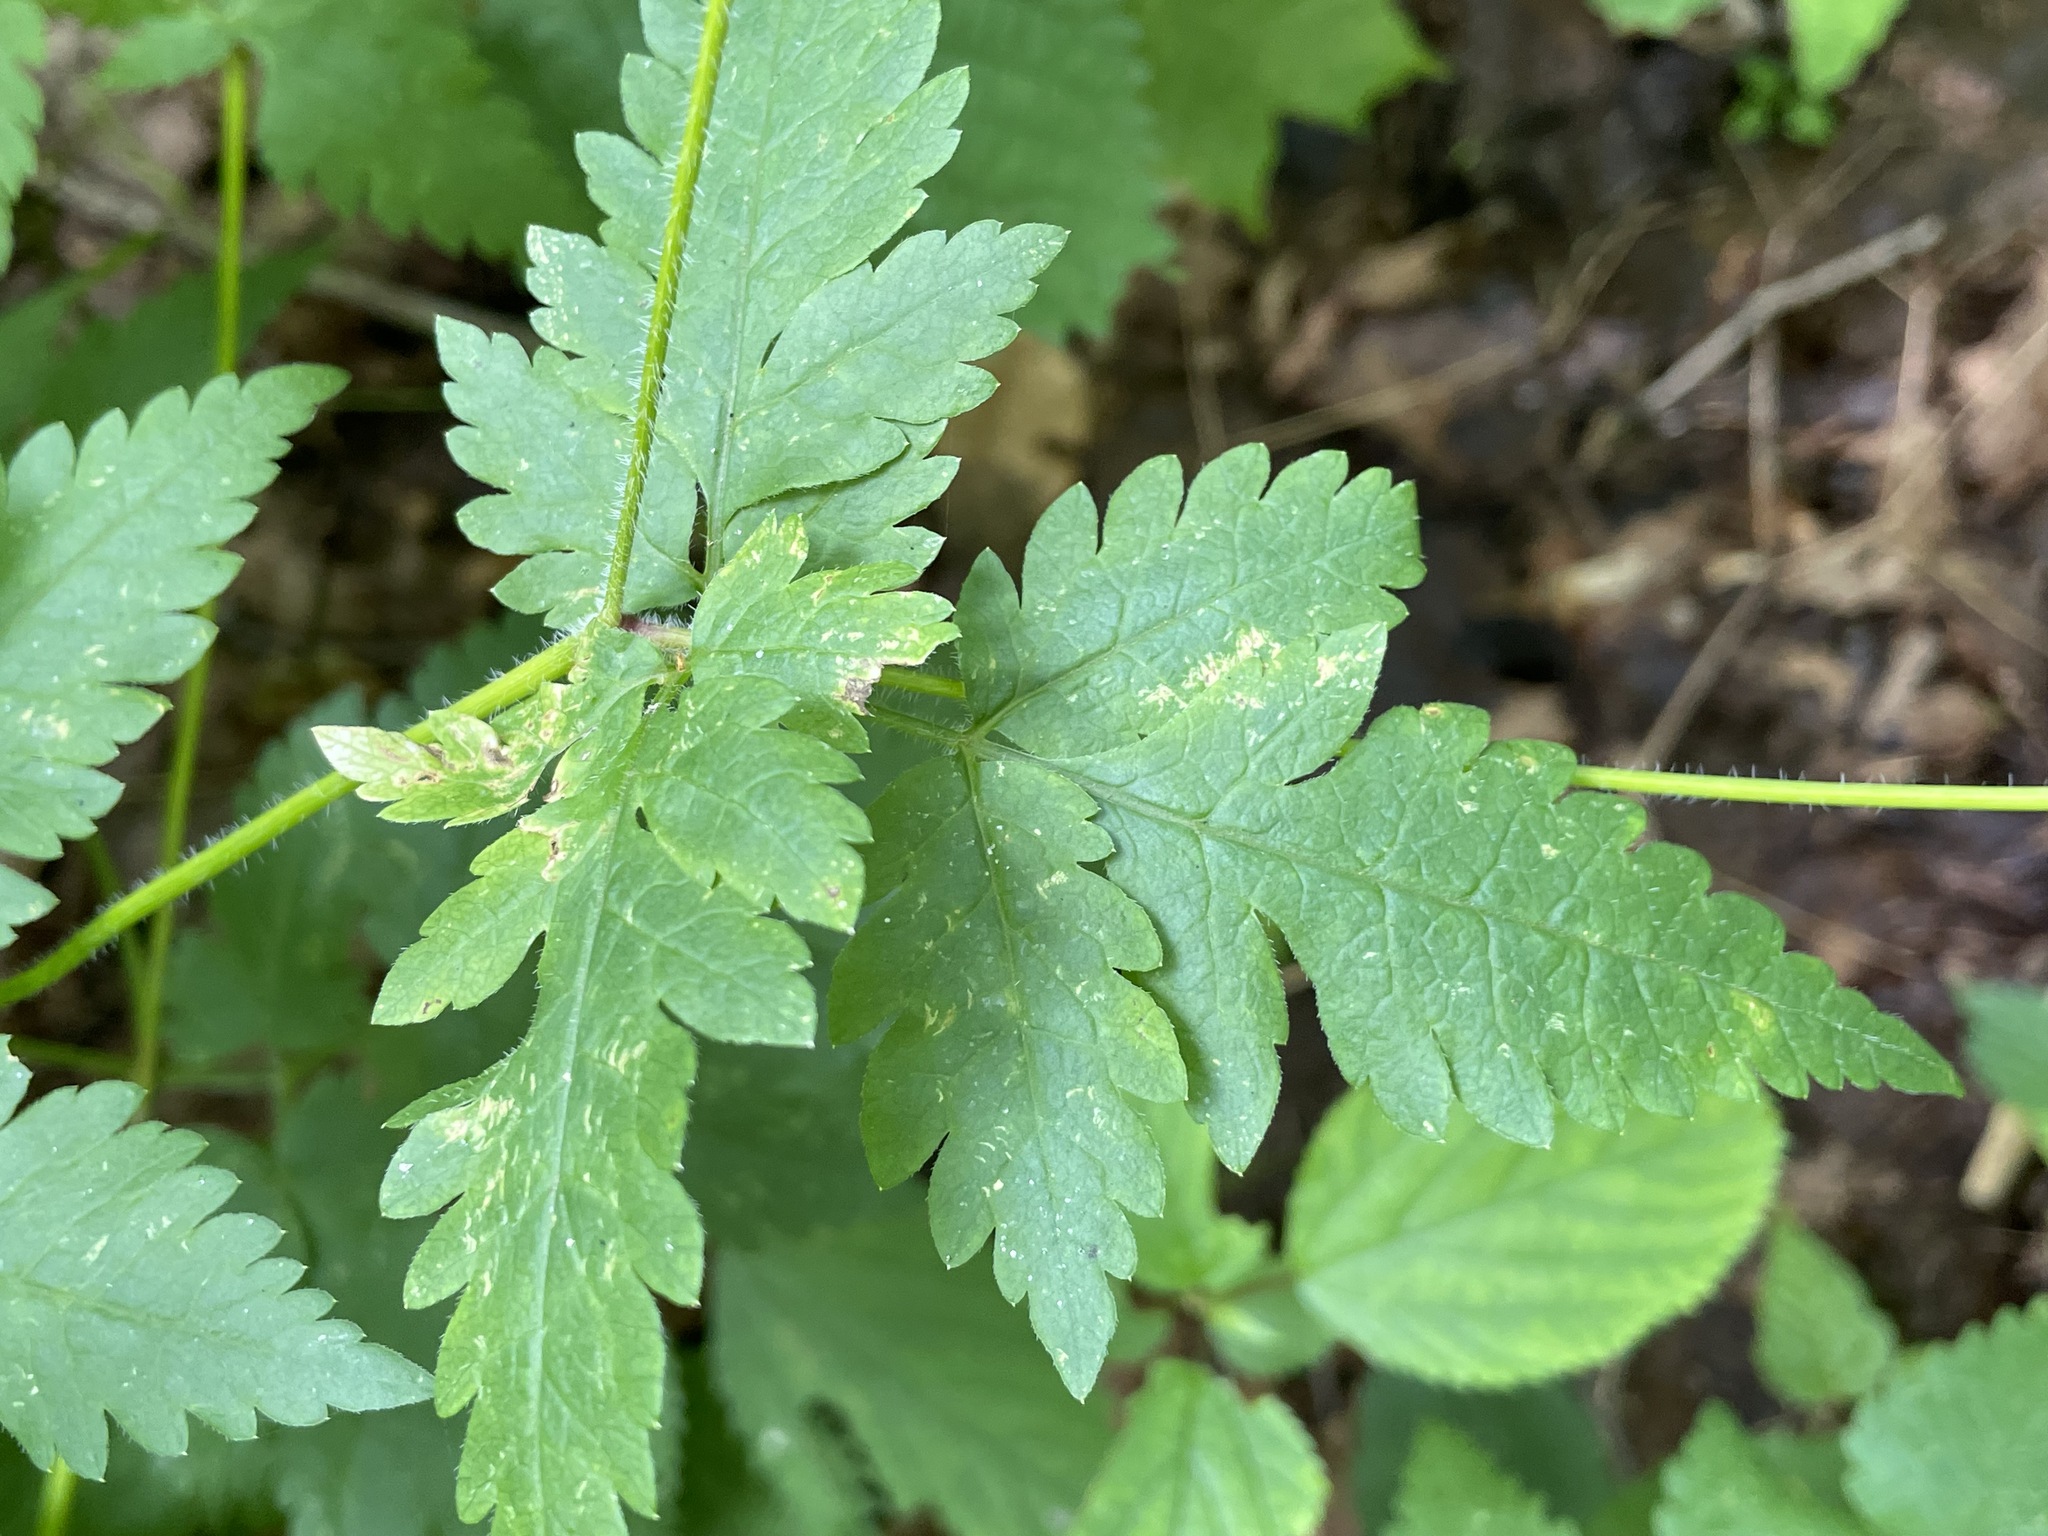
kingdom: Plantae
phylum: Tracheophyta
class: Magnoliopsida
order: Apiales
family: Apiaceae
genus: Osmorhiza
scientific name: Osmorhiza claytonii
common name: Hairy sweet cicely
